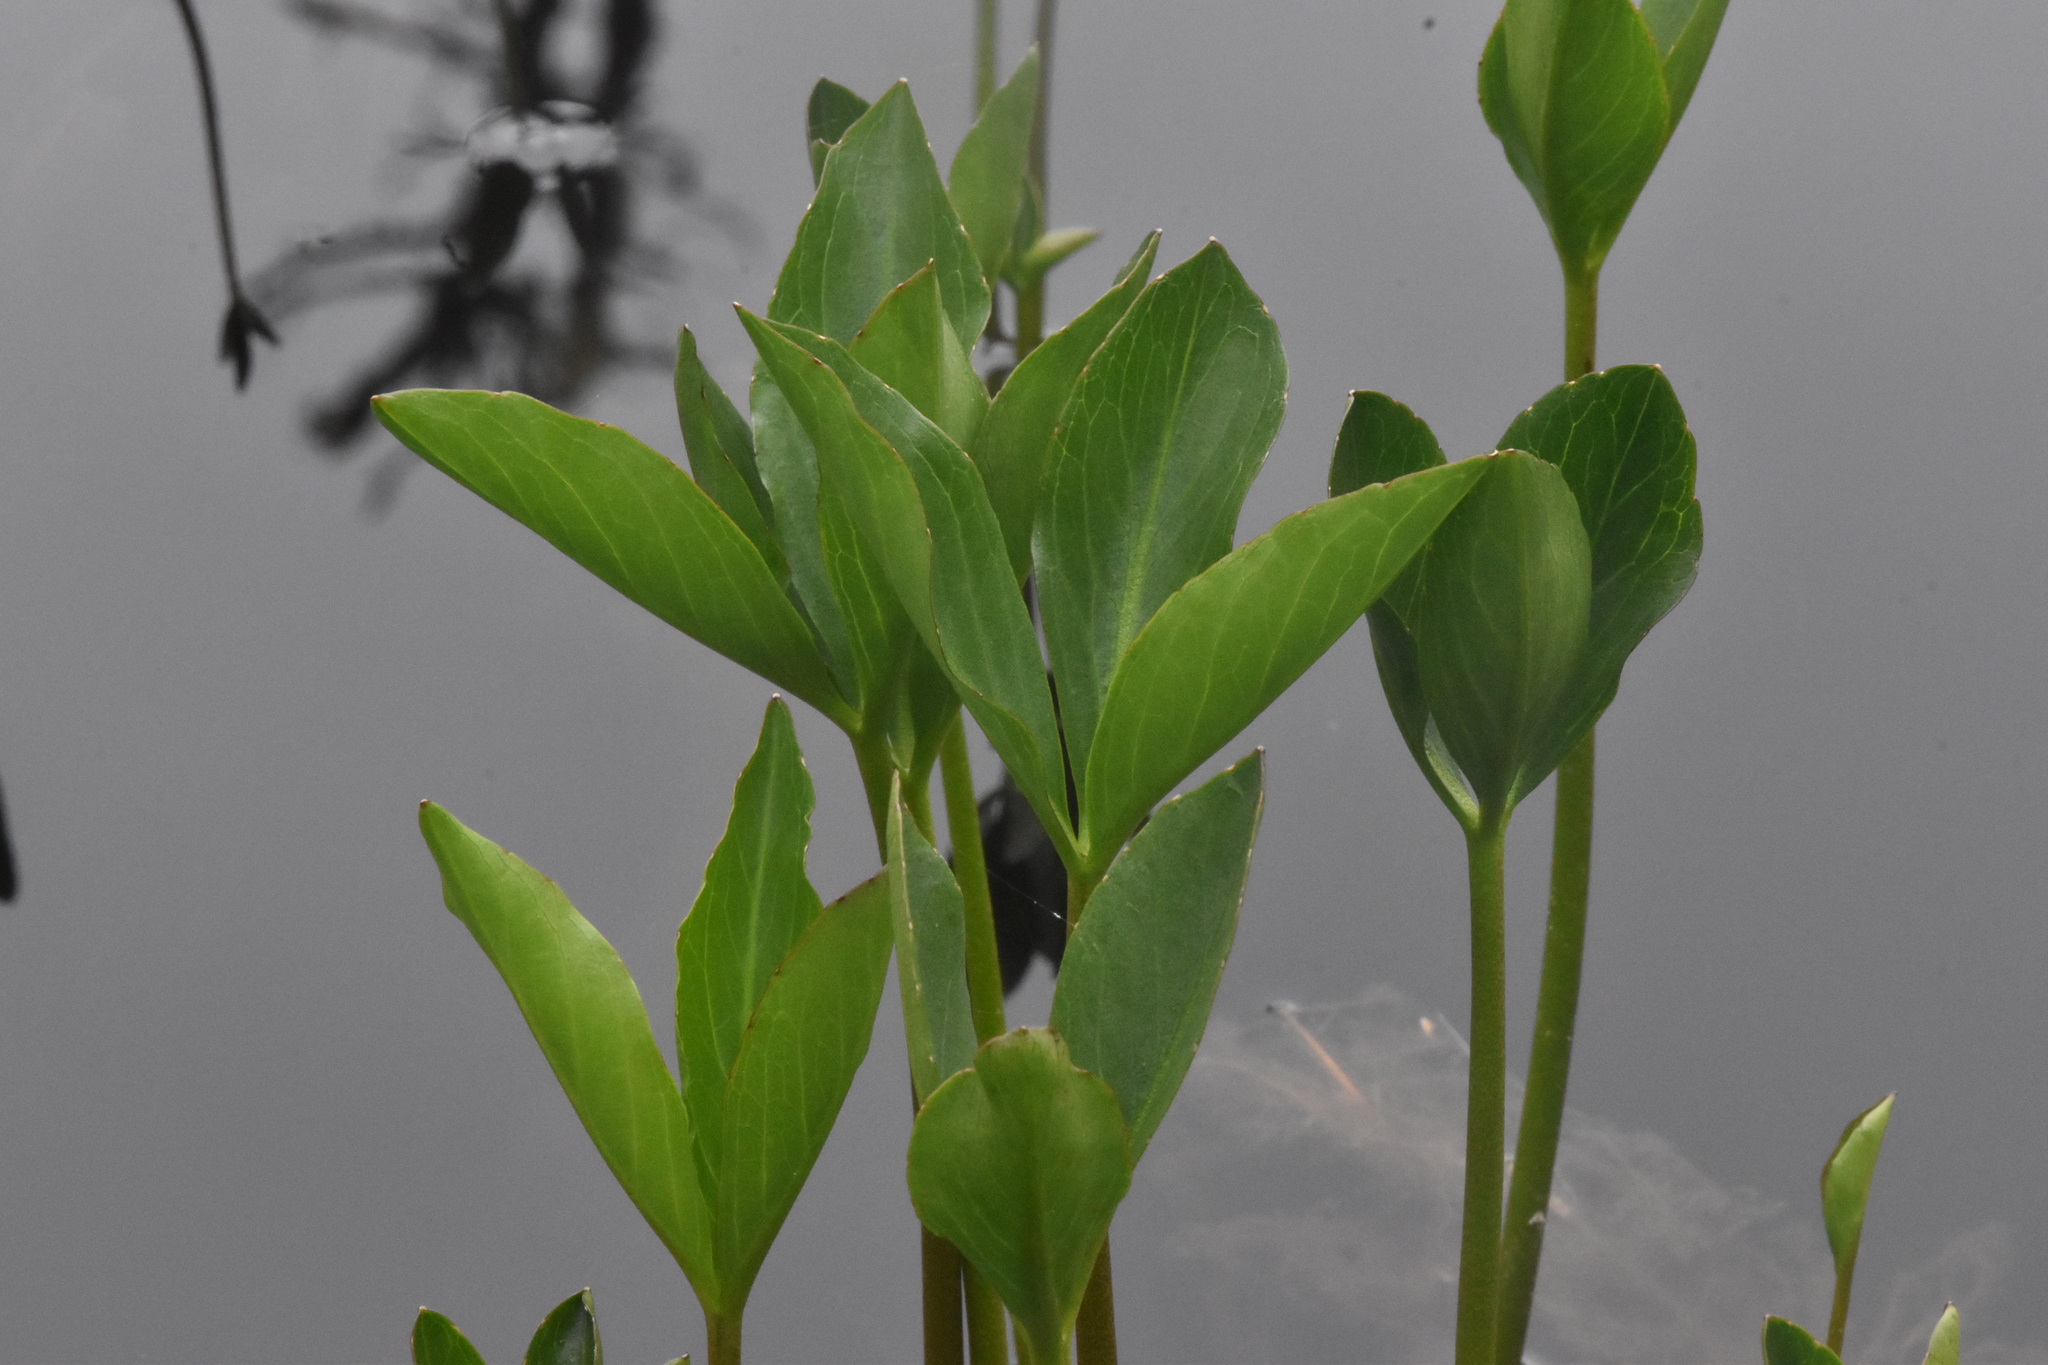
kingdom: Plantae
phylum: Tracheophyta
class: Magnoliopsida
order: Asterales
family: Menyanthaceae
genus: Menyanthes
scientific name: Menyanthes trifoliata
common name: Bogbean
